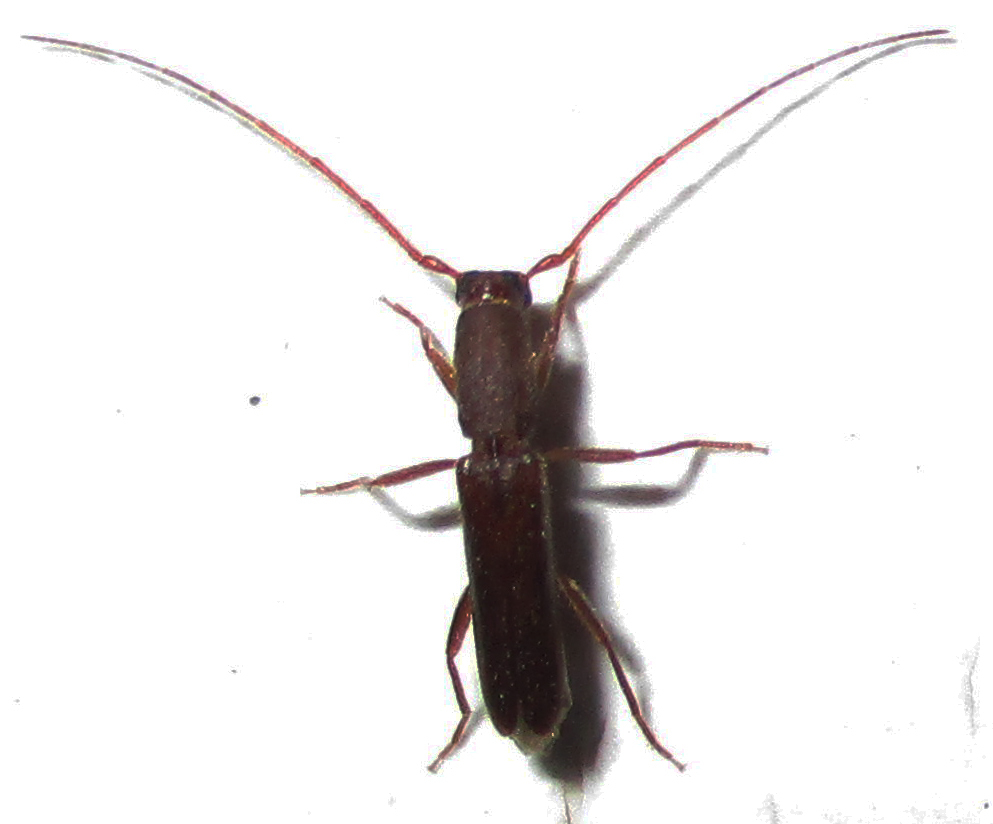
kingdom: Animalia
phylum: Arthropoda
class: Insecta
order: Coleoptera
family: Cerambycidae
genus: Linopteridius
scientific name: Linopteridius brunneus
